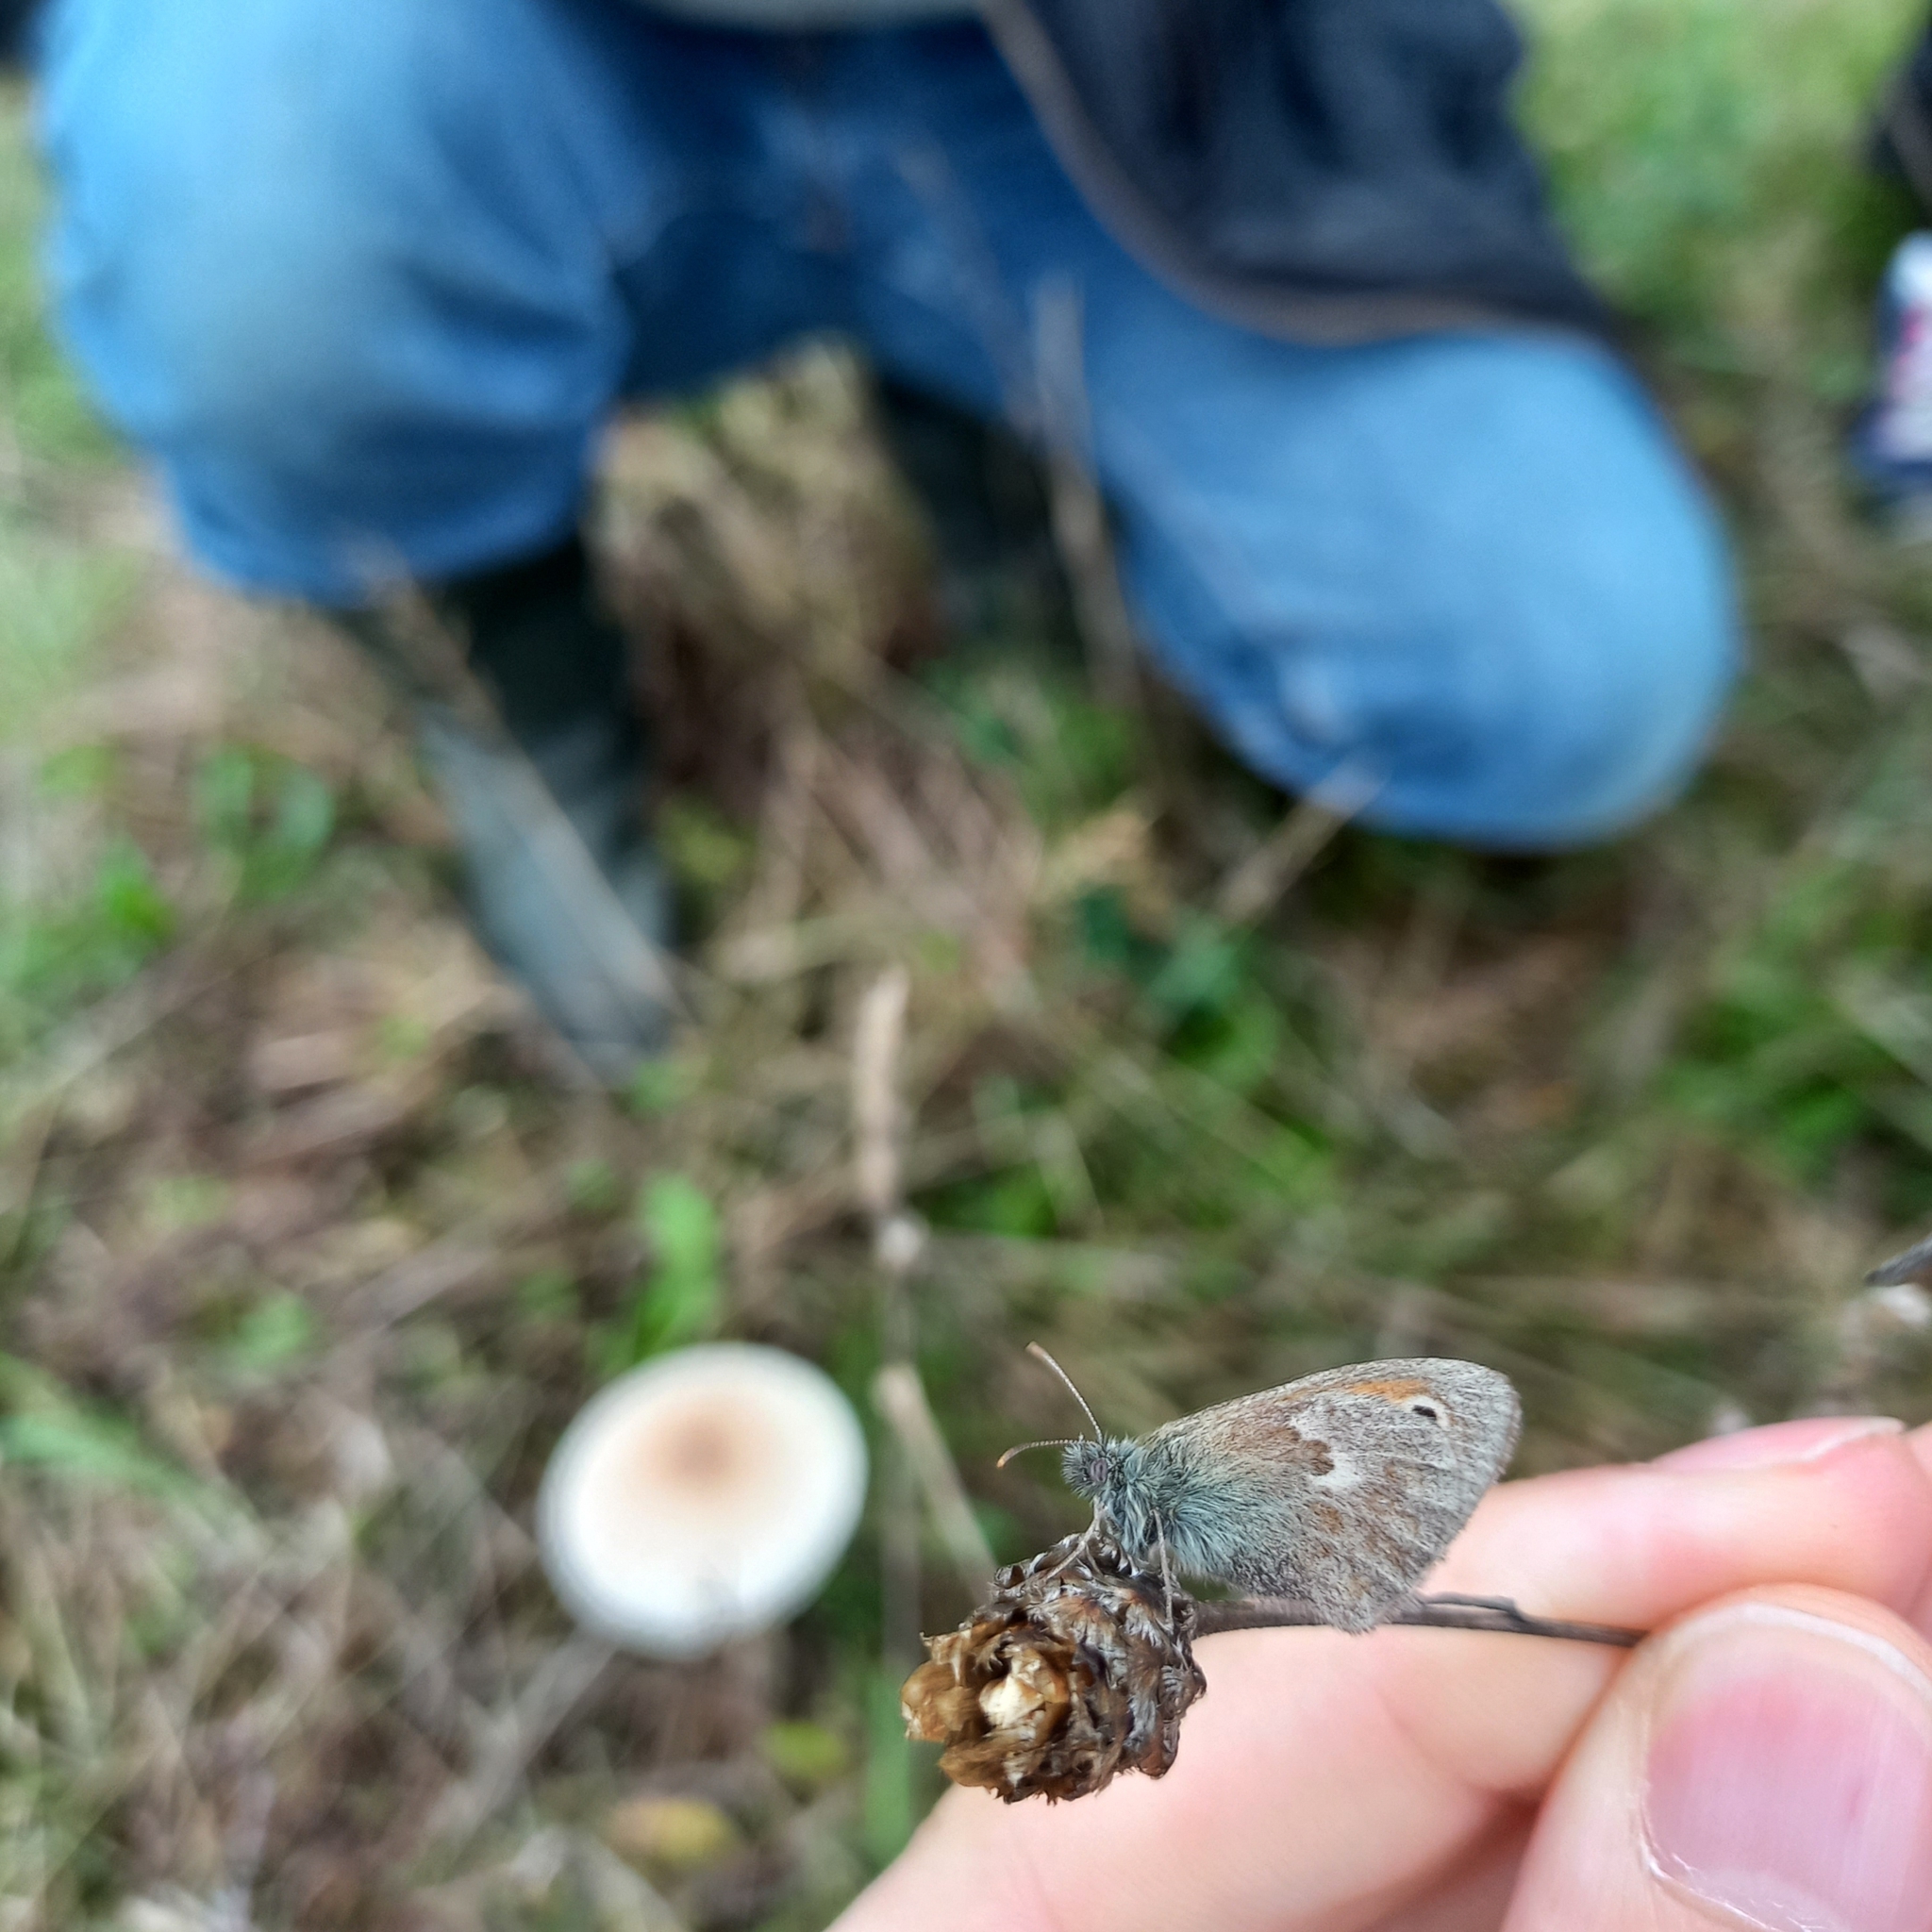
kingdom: Animalia
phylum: Arthropoda
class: Insecta
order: Lepidoptera
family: Nymphalidae
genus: Coenonympha
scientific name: Coenonympha pamphilus
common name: Small heath
